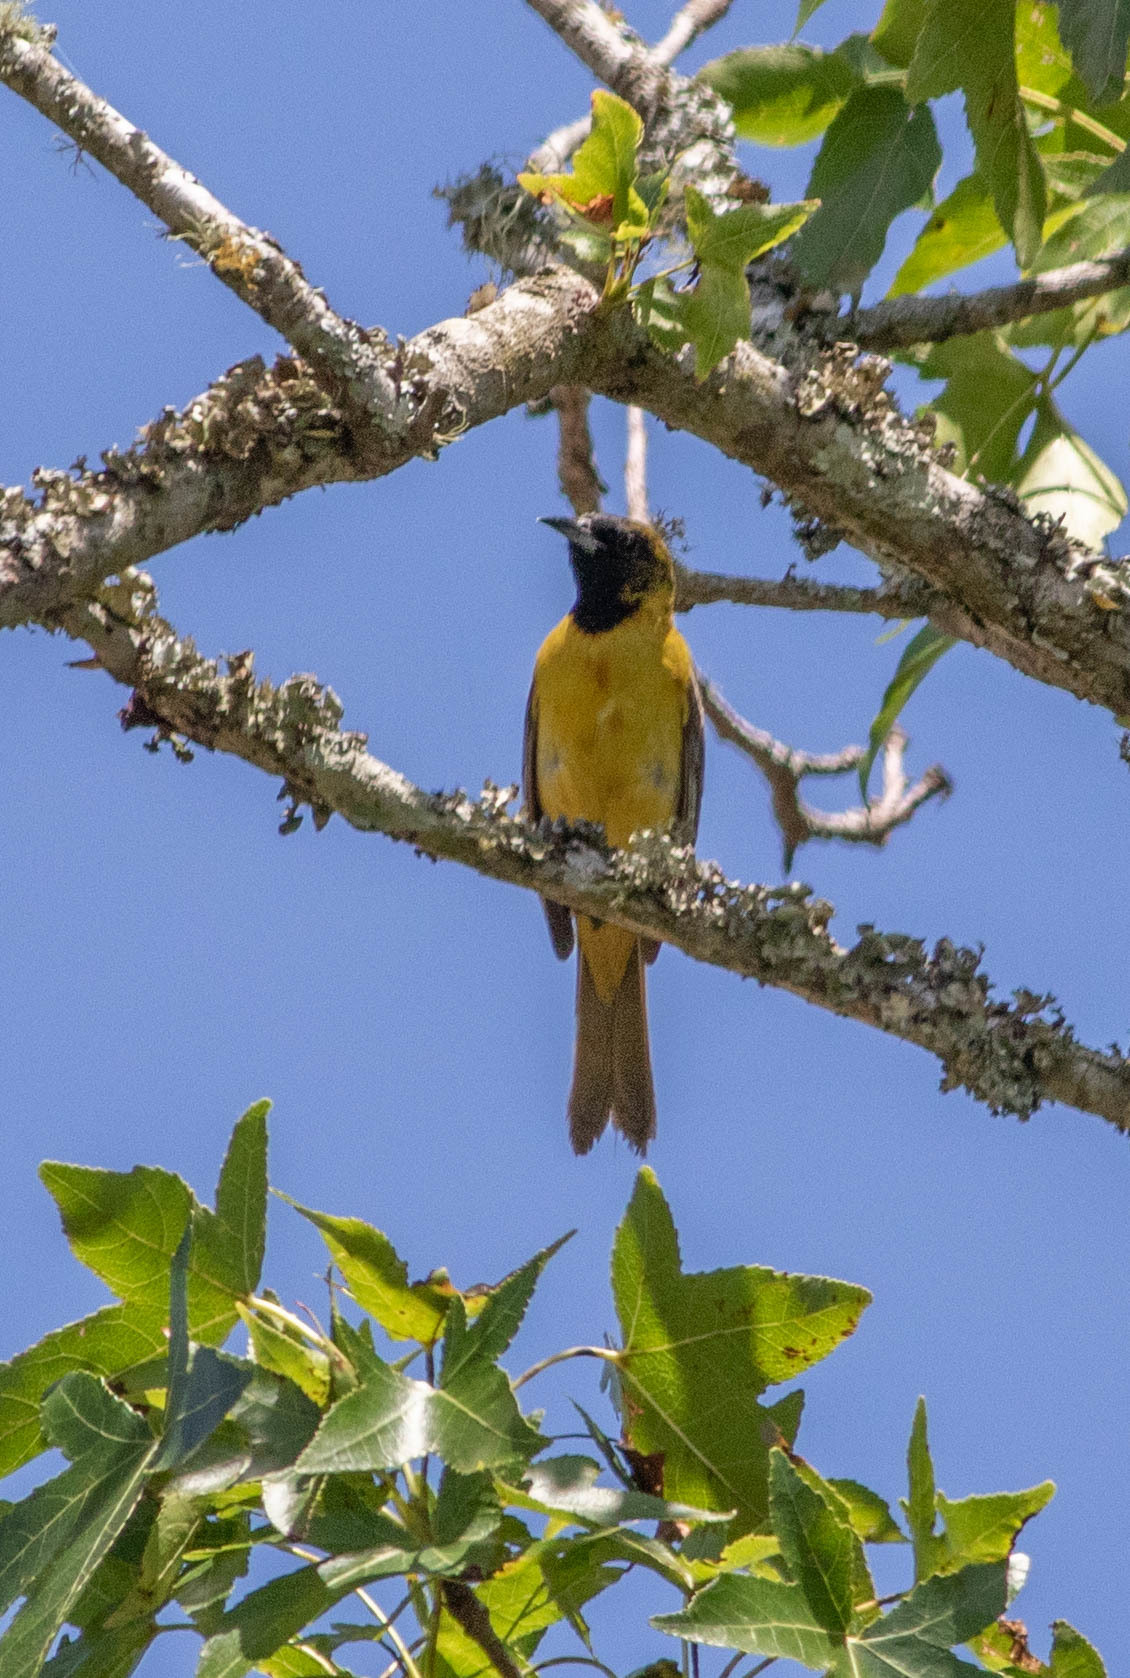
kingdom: Animalia
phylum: Chordata
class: Aves
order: Passeriformes
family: Icteridae
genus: Icterus
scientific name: Icterus spurius
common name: Orchard oriole
